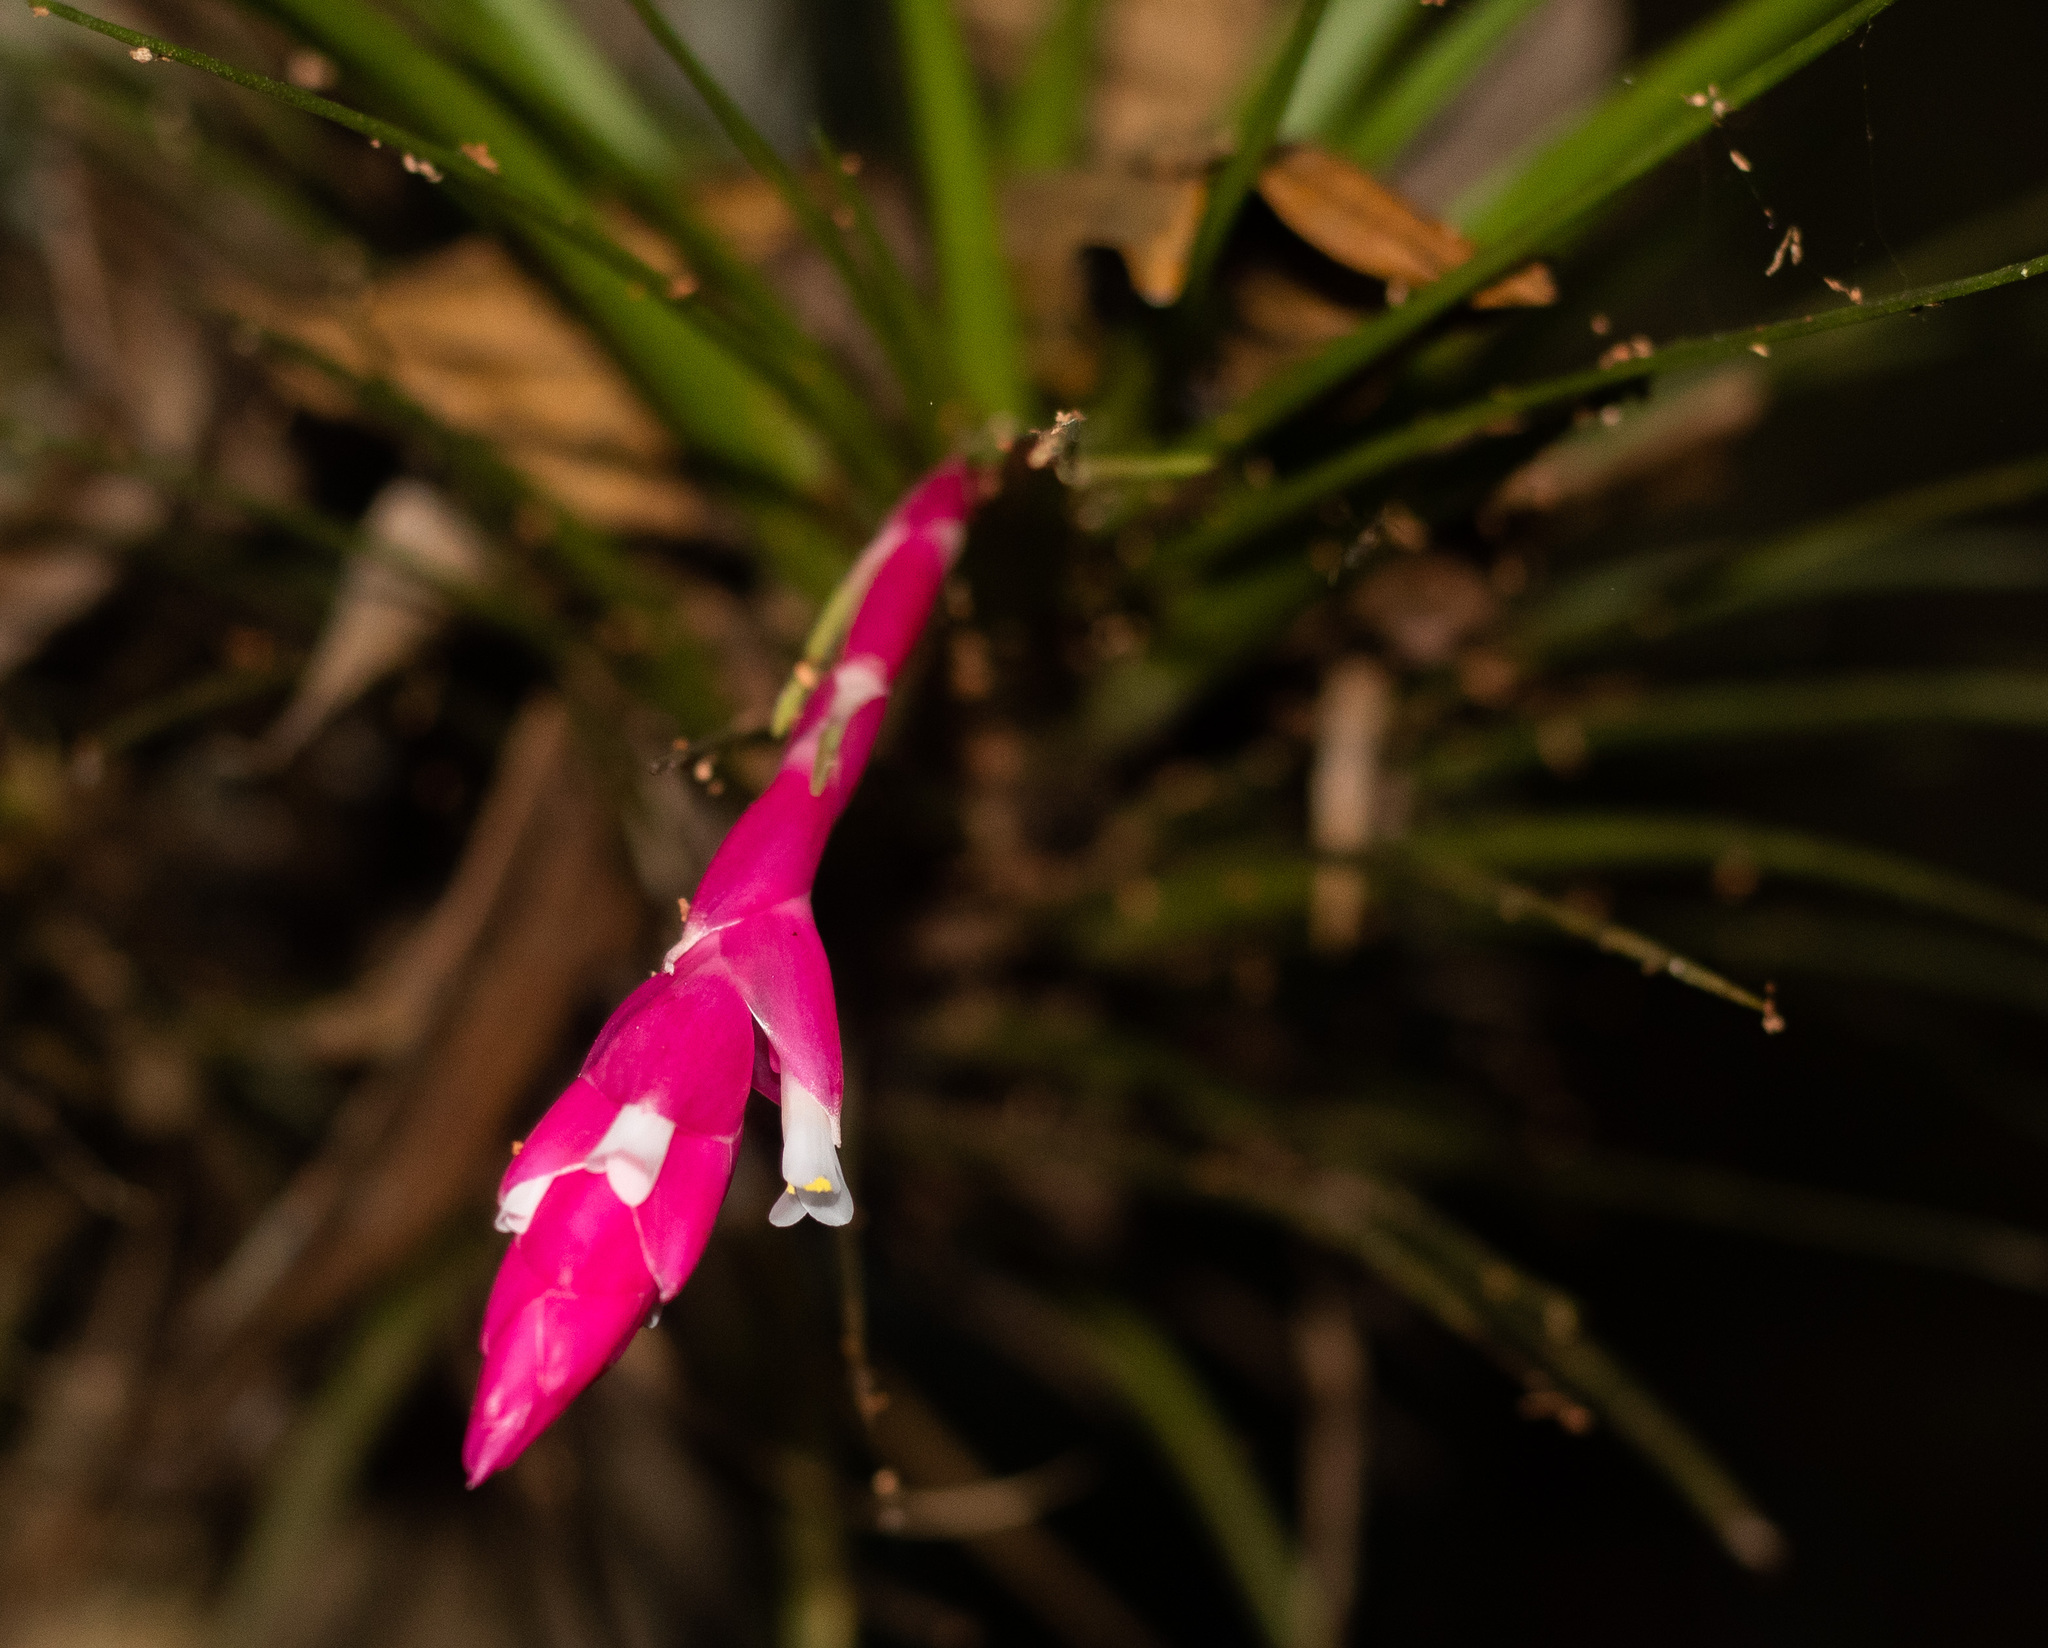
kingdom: Plantae
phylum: Tracheophyta
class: Liliopsida
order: Poales
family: Bromeliaceae
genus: Tillandsia
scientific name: Tillandsia tenuifolia
